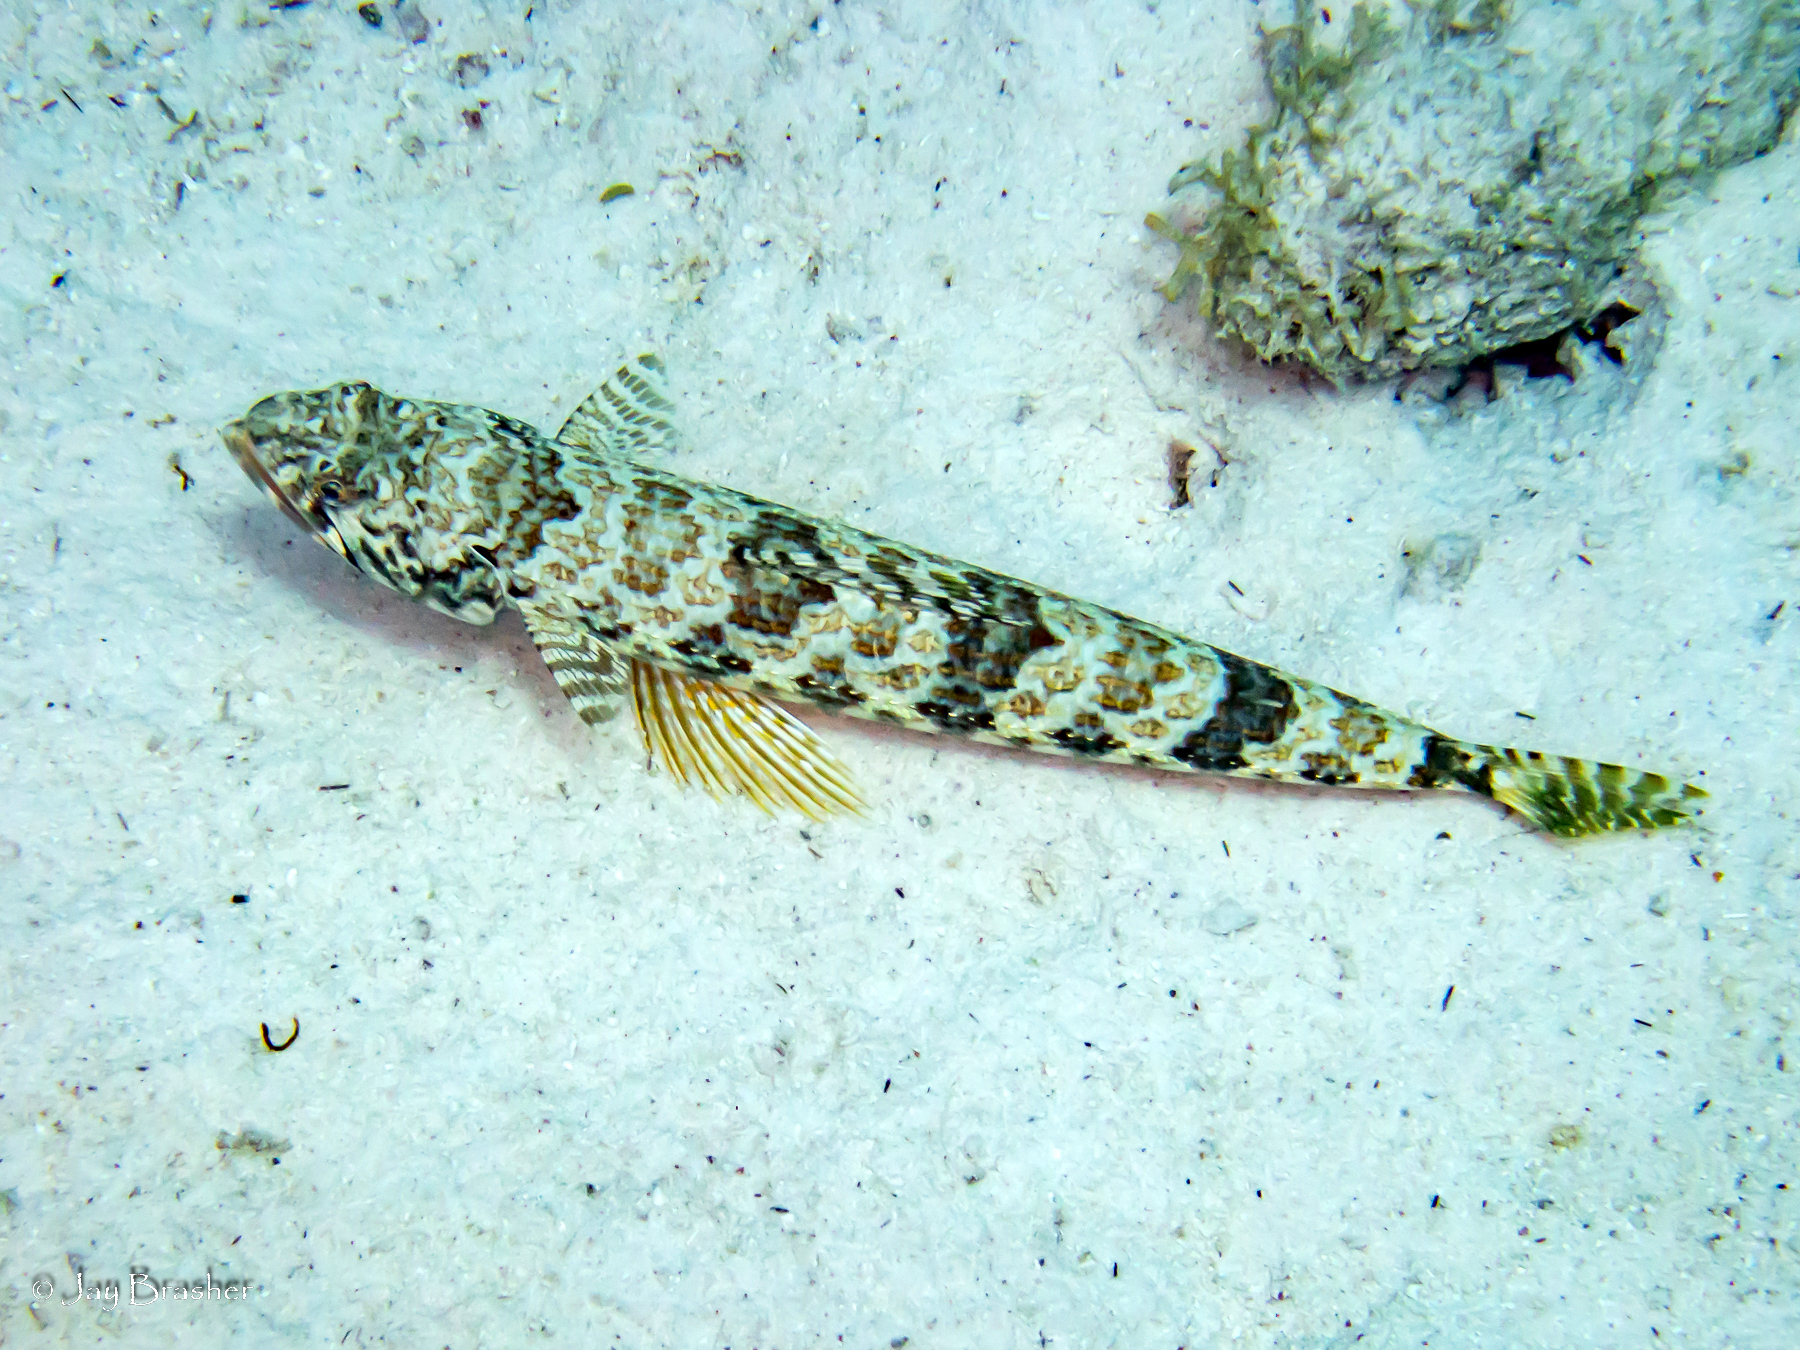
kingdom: Animalia
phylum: Chordata
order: Aulopiformes
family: Synodontidae
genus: Synodus
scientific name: Synodus intermedius
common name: Sand diver
